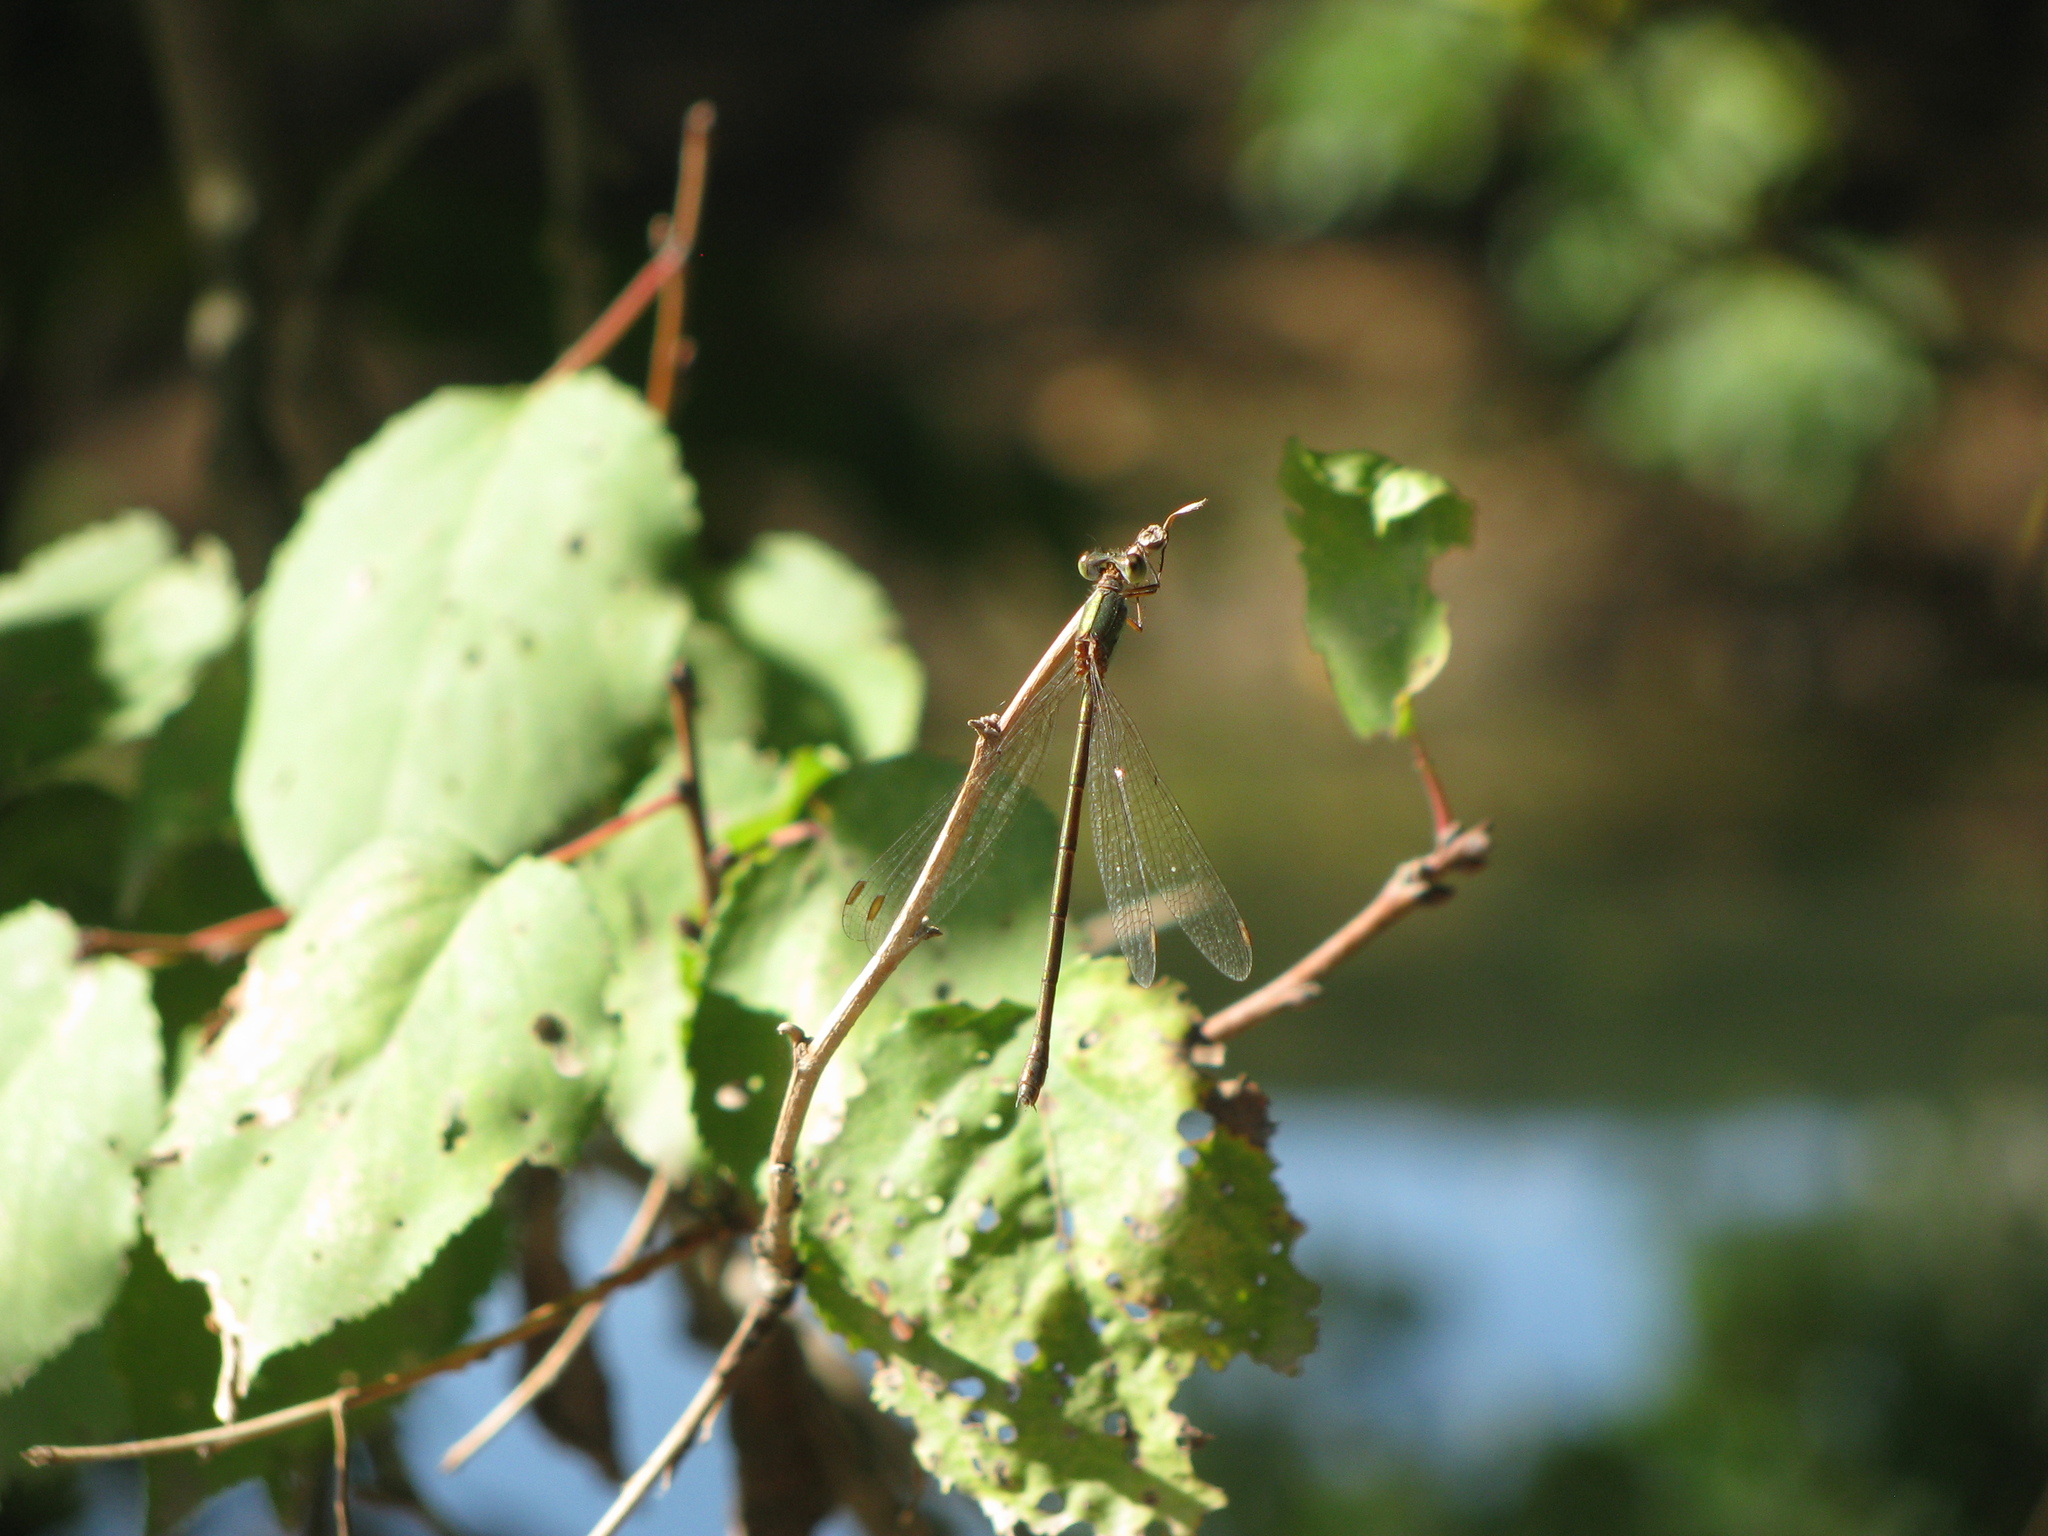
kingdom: Animalia
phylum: Arthropoda
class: Insecta
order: Odonata
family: Lestidae
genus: Chalcolestes
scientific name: Chalcolestes parvidens
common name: Eastern willow spreadwing
